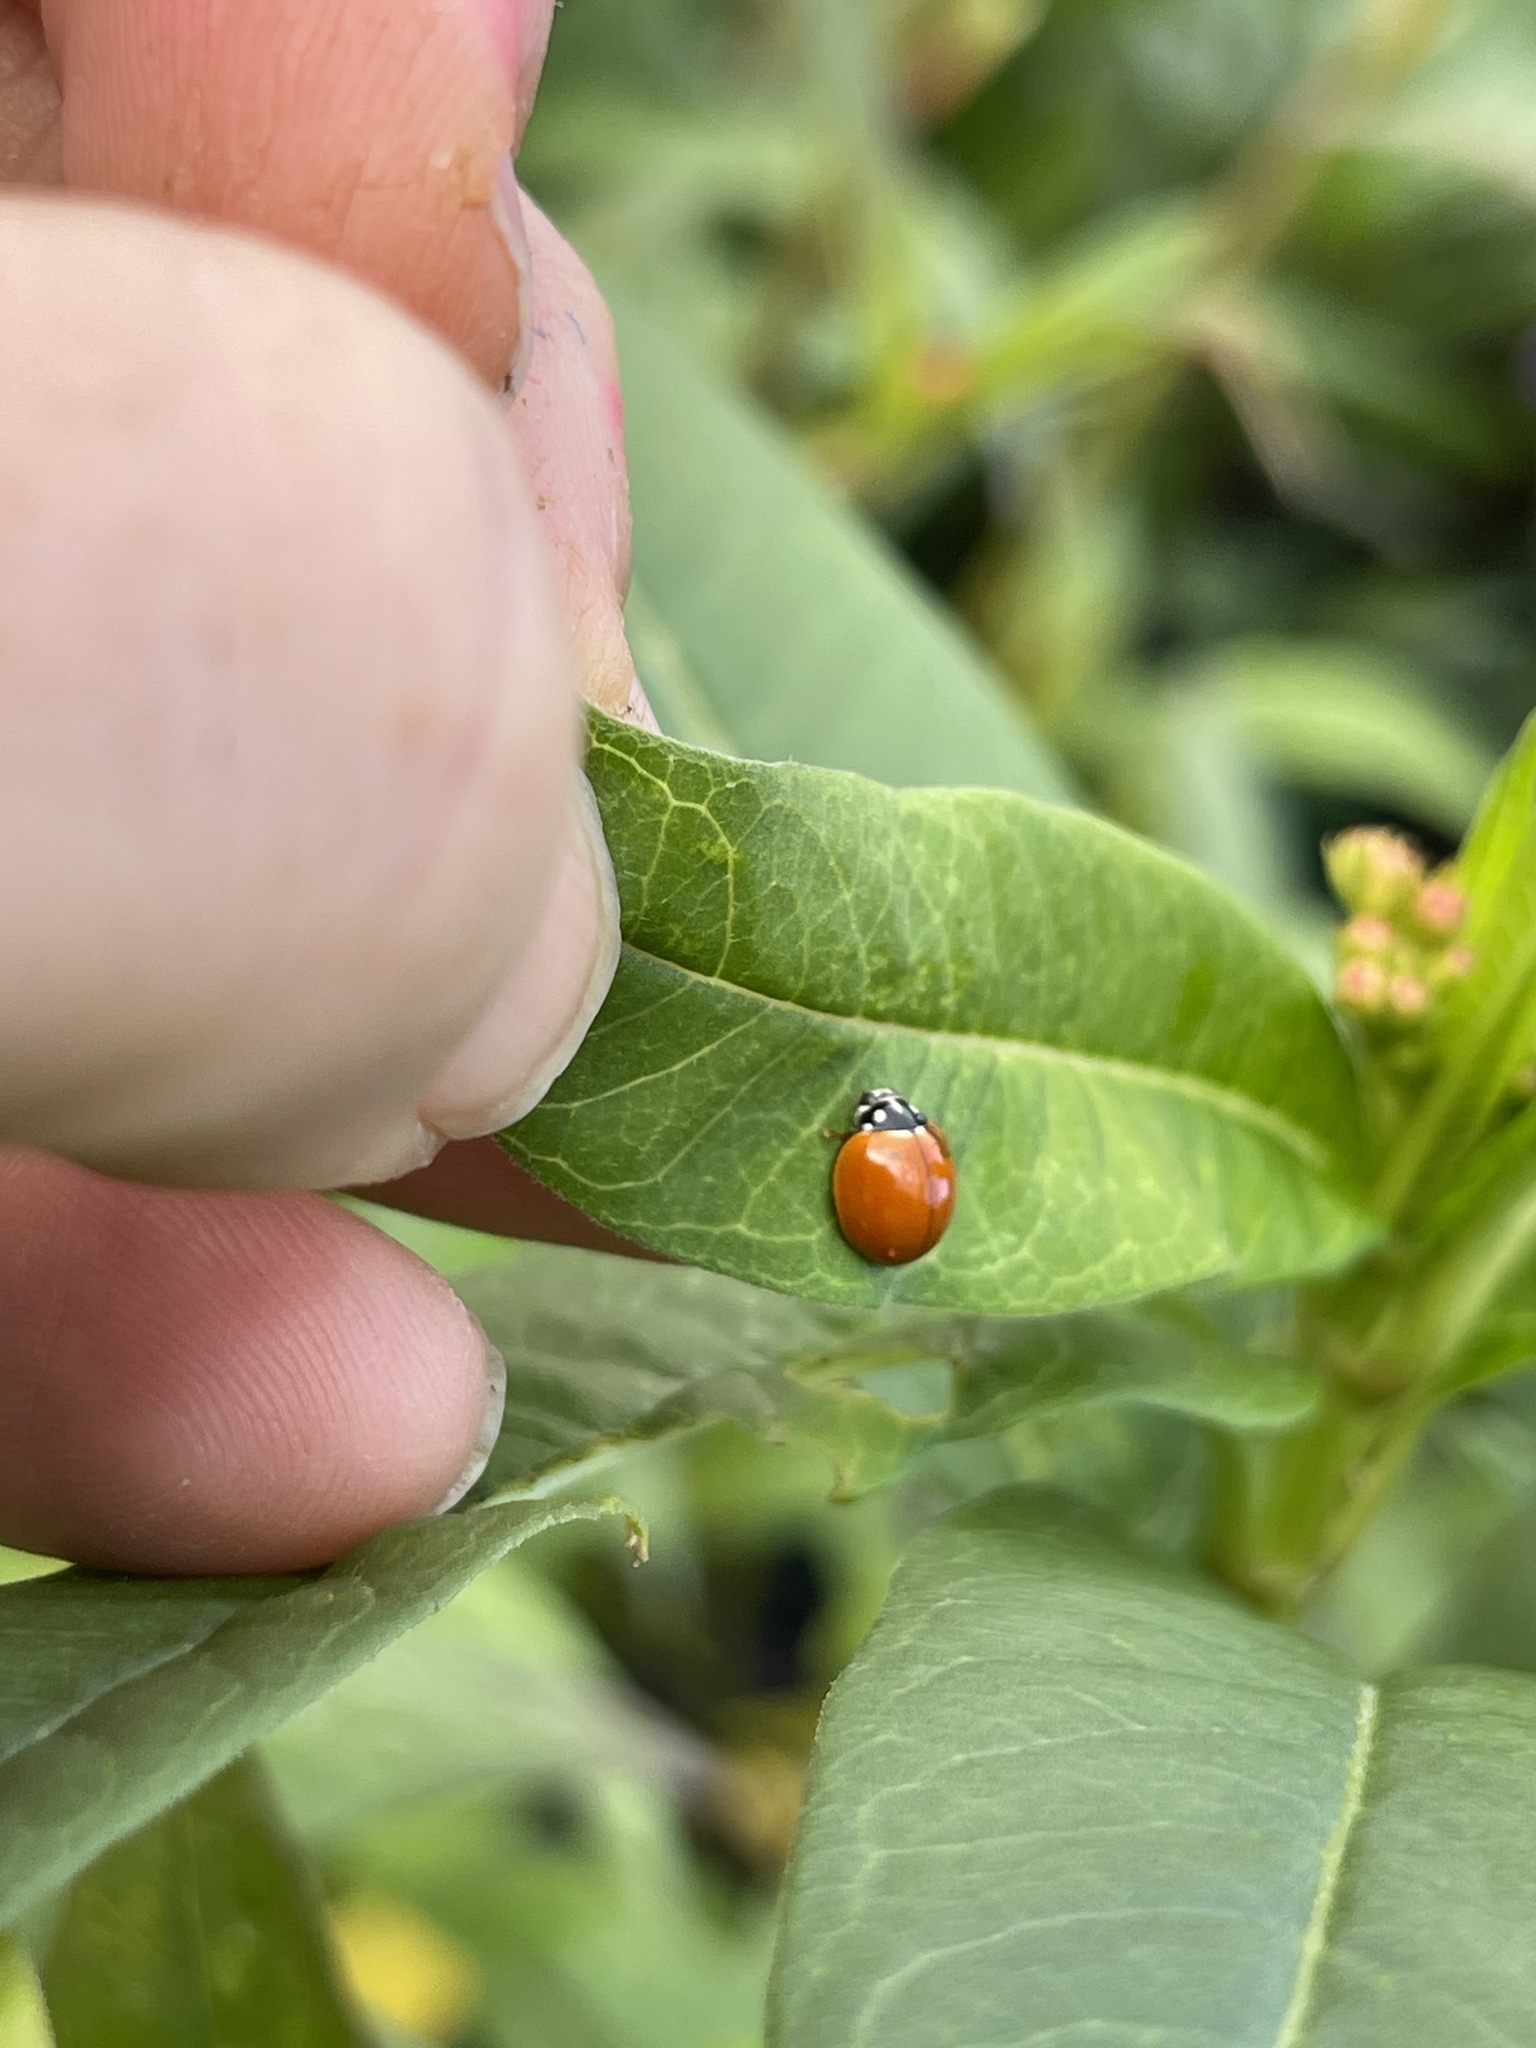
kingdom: Animalia
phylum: Arthropoda
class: Insecta
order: Coleoptera
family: Coccinellidae
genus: Cycloneda
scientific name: Cycloneda sanguinea
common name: Ladybird beetle
